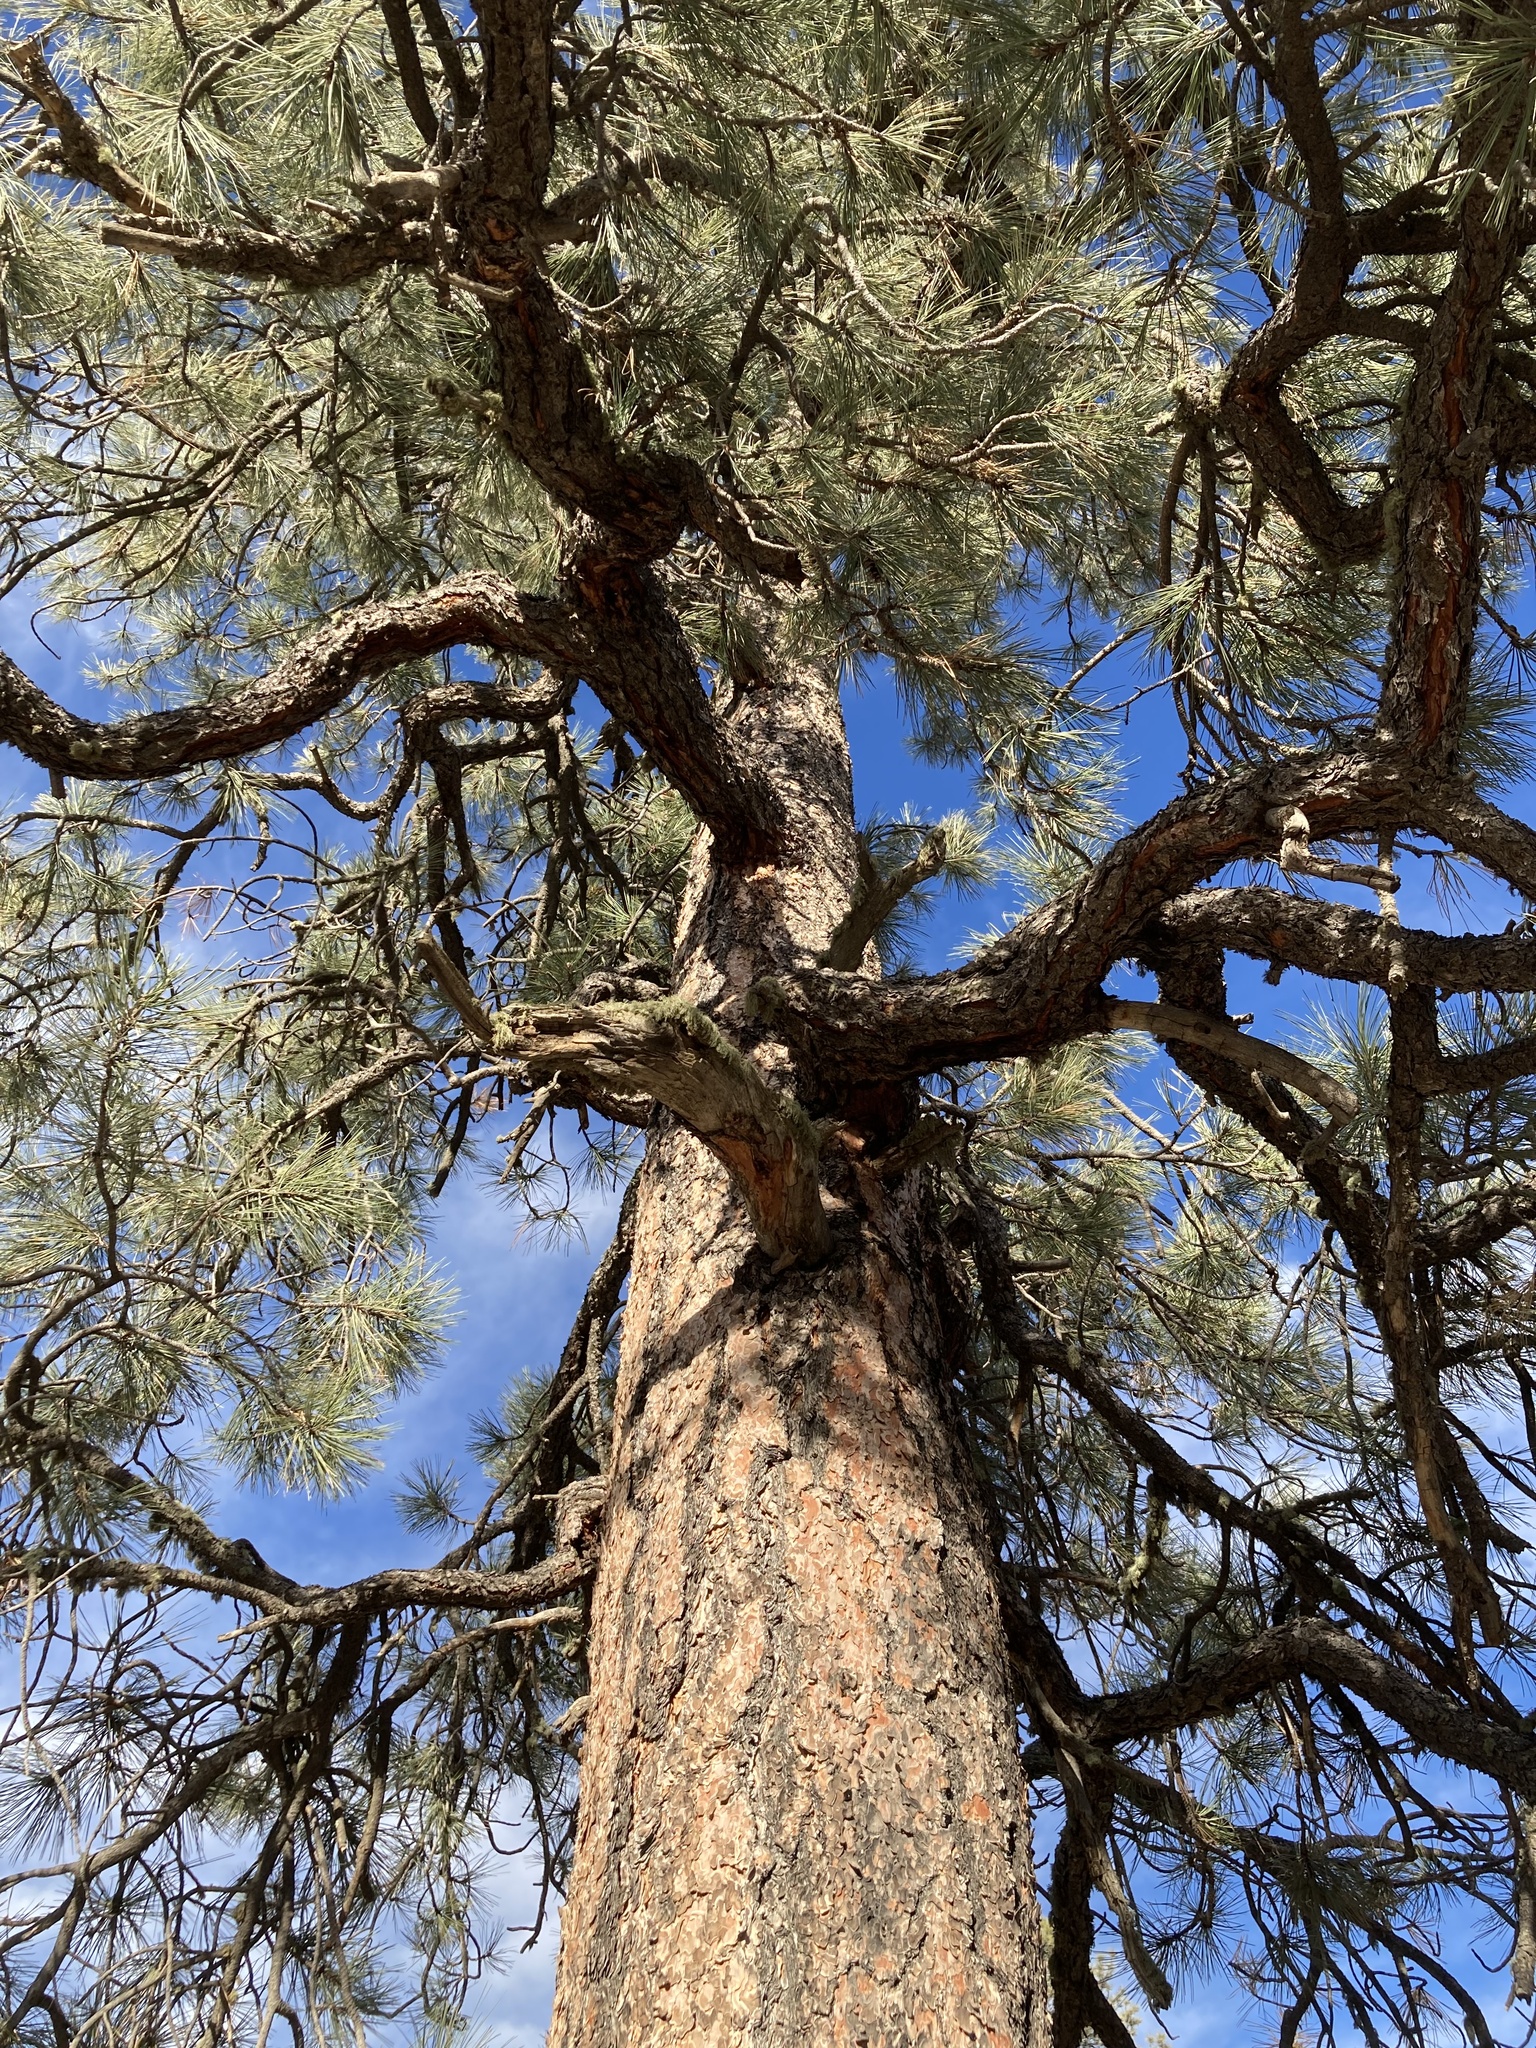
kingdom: Plantae
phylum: Tracheophyta
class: Pinopsida
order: Pinales
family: Pinaceae
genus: Pinus
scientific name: Pinus ponderosa
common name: Western yellow-pine
